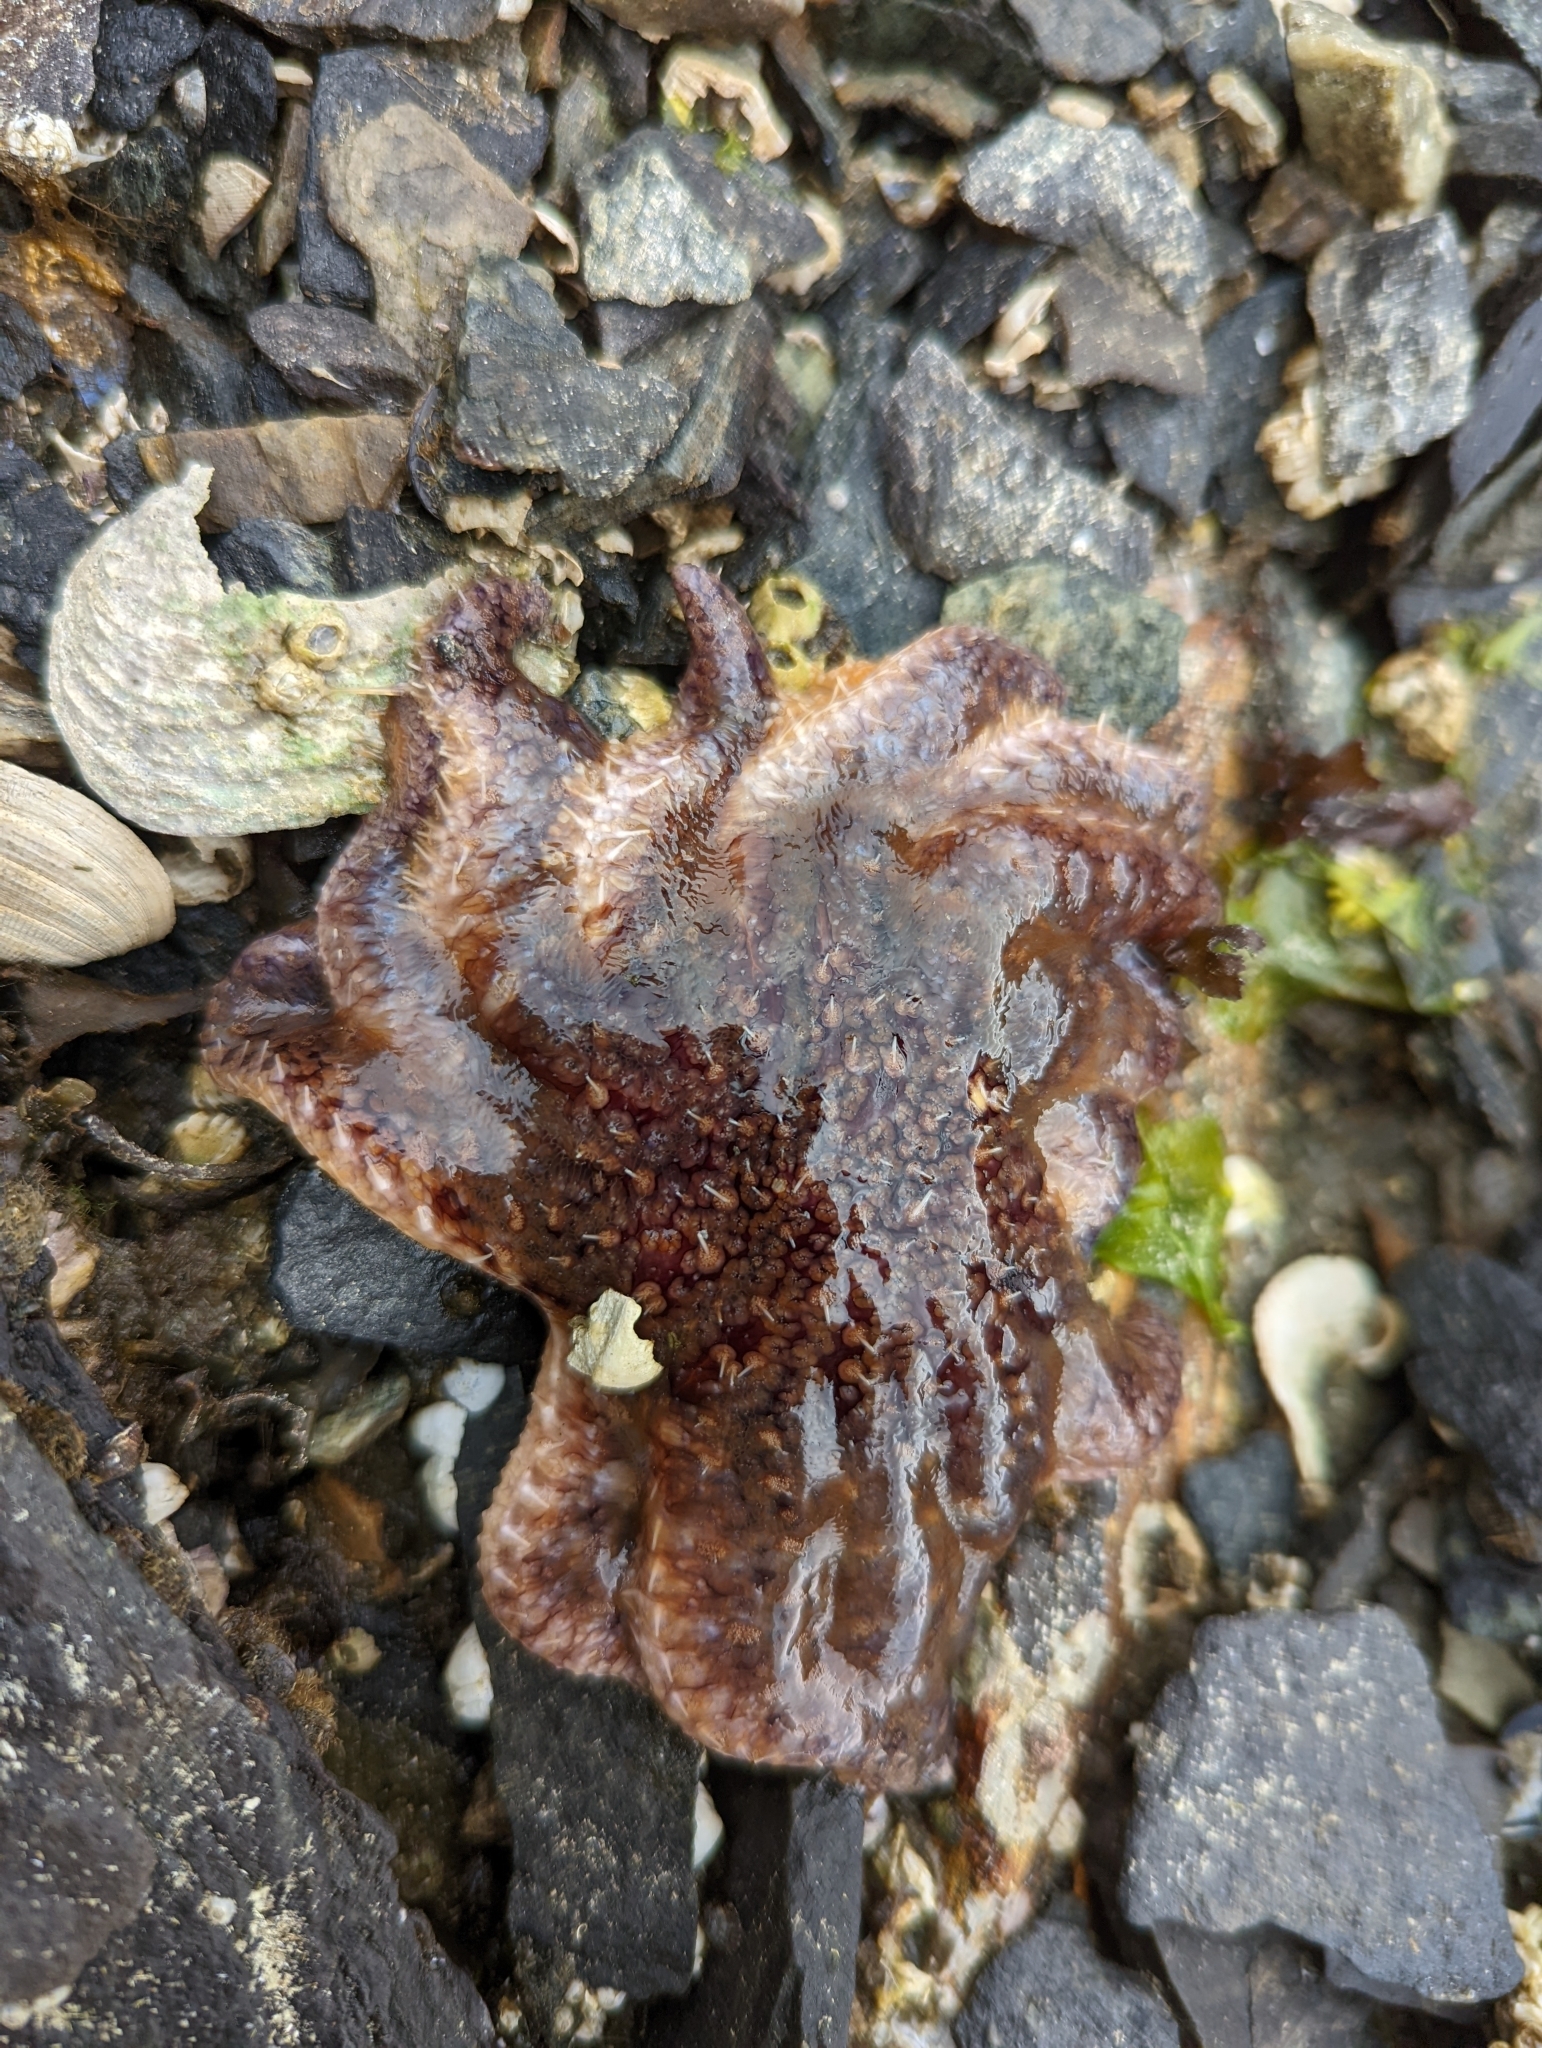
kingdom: Animalia
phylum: Echinodermata
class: Asteroidea
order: Forcipulatida
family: Asteriidae
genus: Pycnopodia
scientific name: Pycnopodia helianthoides
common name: Rag mop
